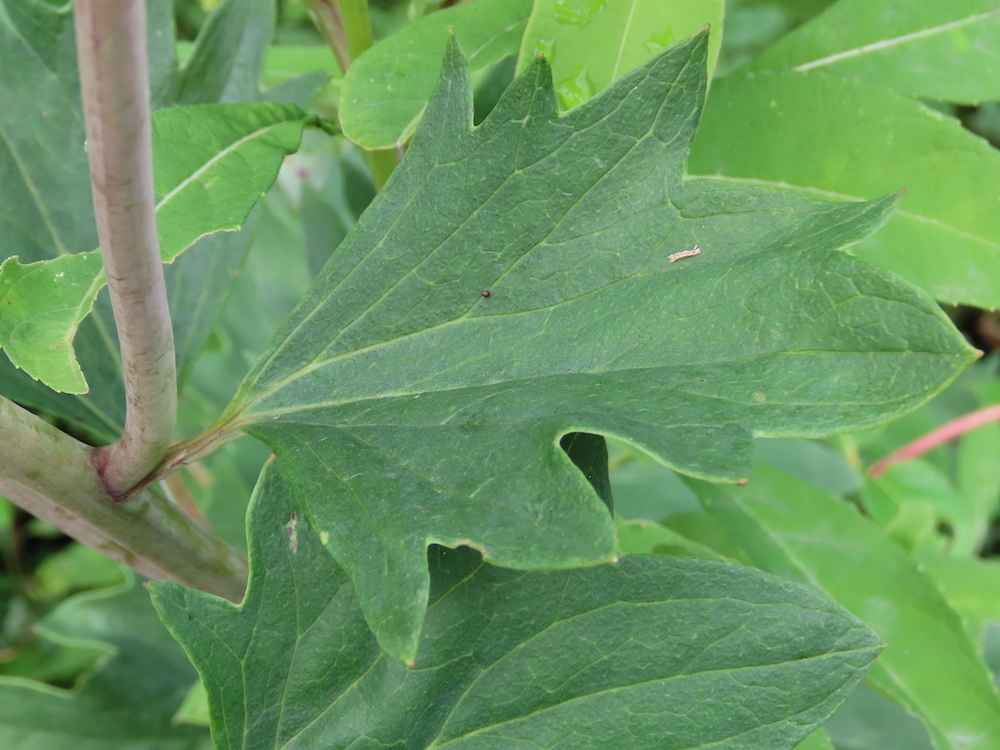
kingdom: Plantae
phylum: Tracheophyta
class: Magnoliopsida
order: Asterales
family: Asteraceae
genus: Arnoglossum
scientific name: Arnoglossum atriplicifolium
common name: Pale indian-plantain
